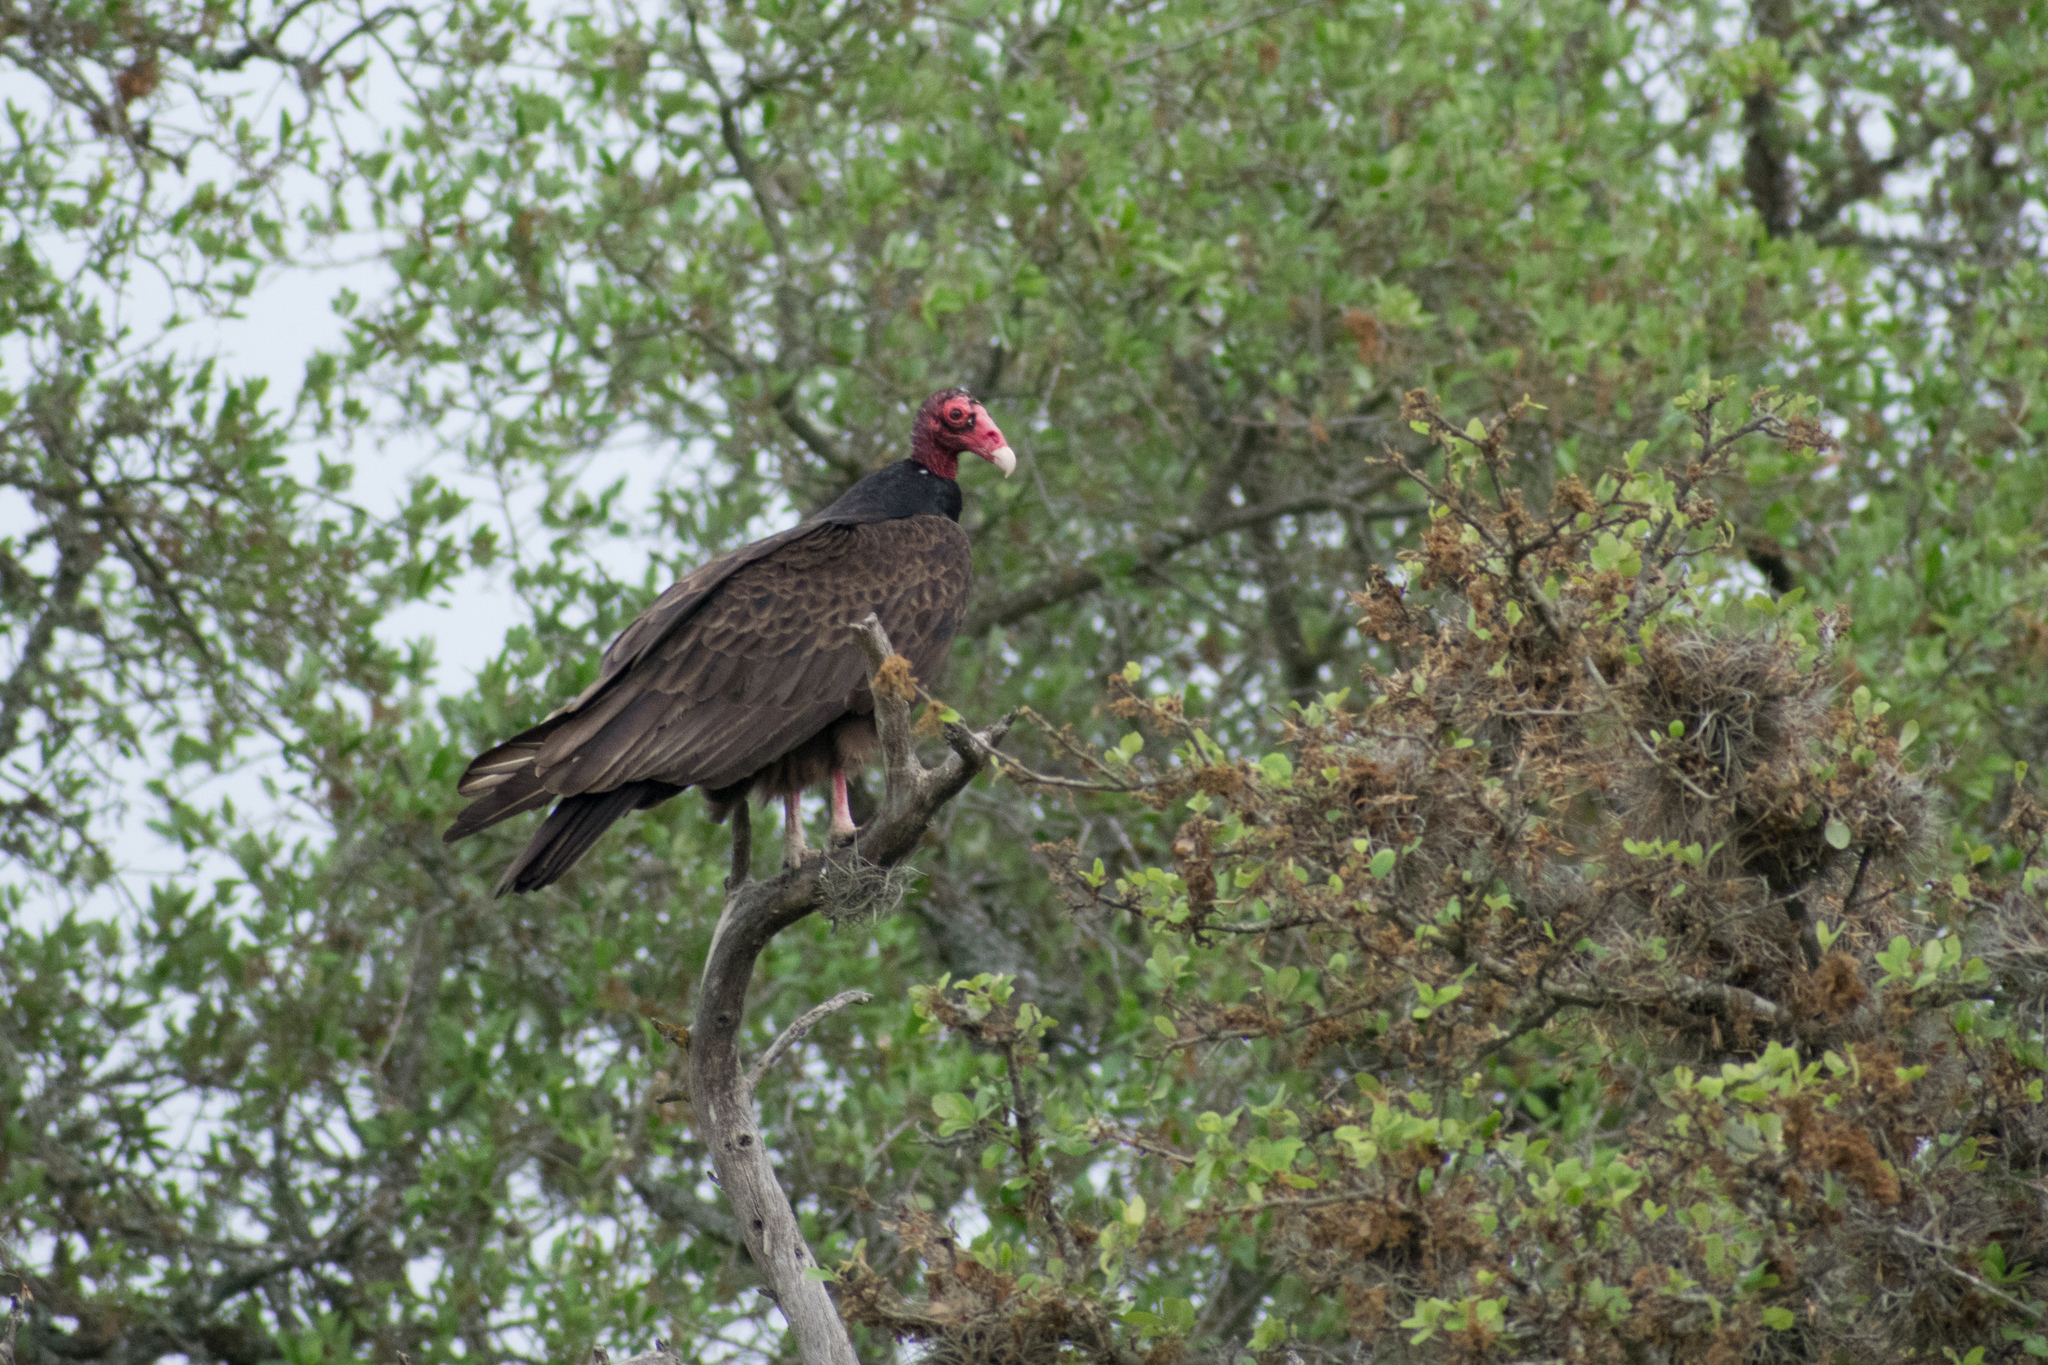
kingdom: Animalia
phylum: Chordata
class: Aves
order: Accipitriformes
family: Cathartidae
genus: Cathartes
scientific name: Cathartes aura
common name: Turkey vulture
